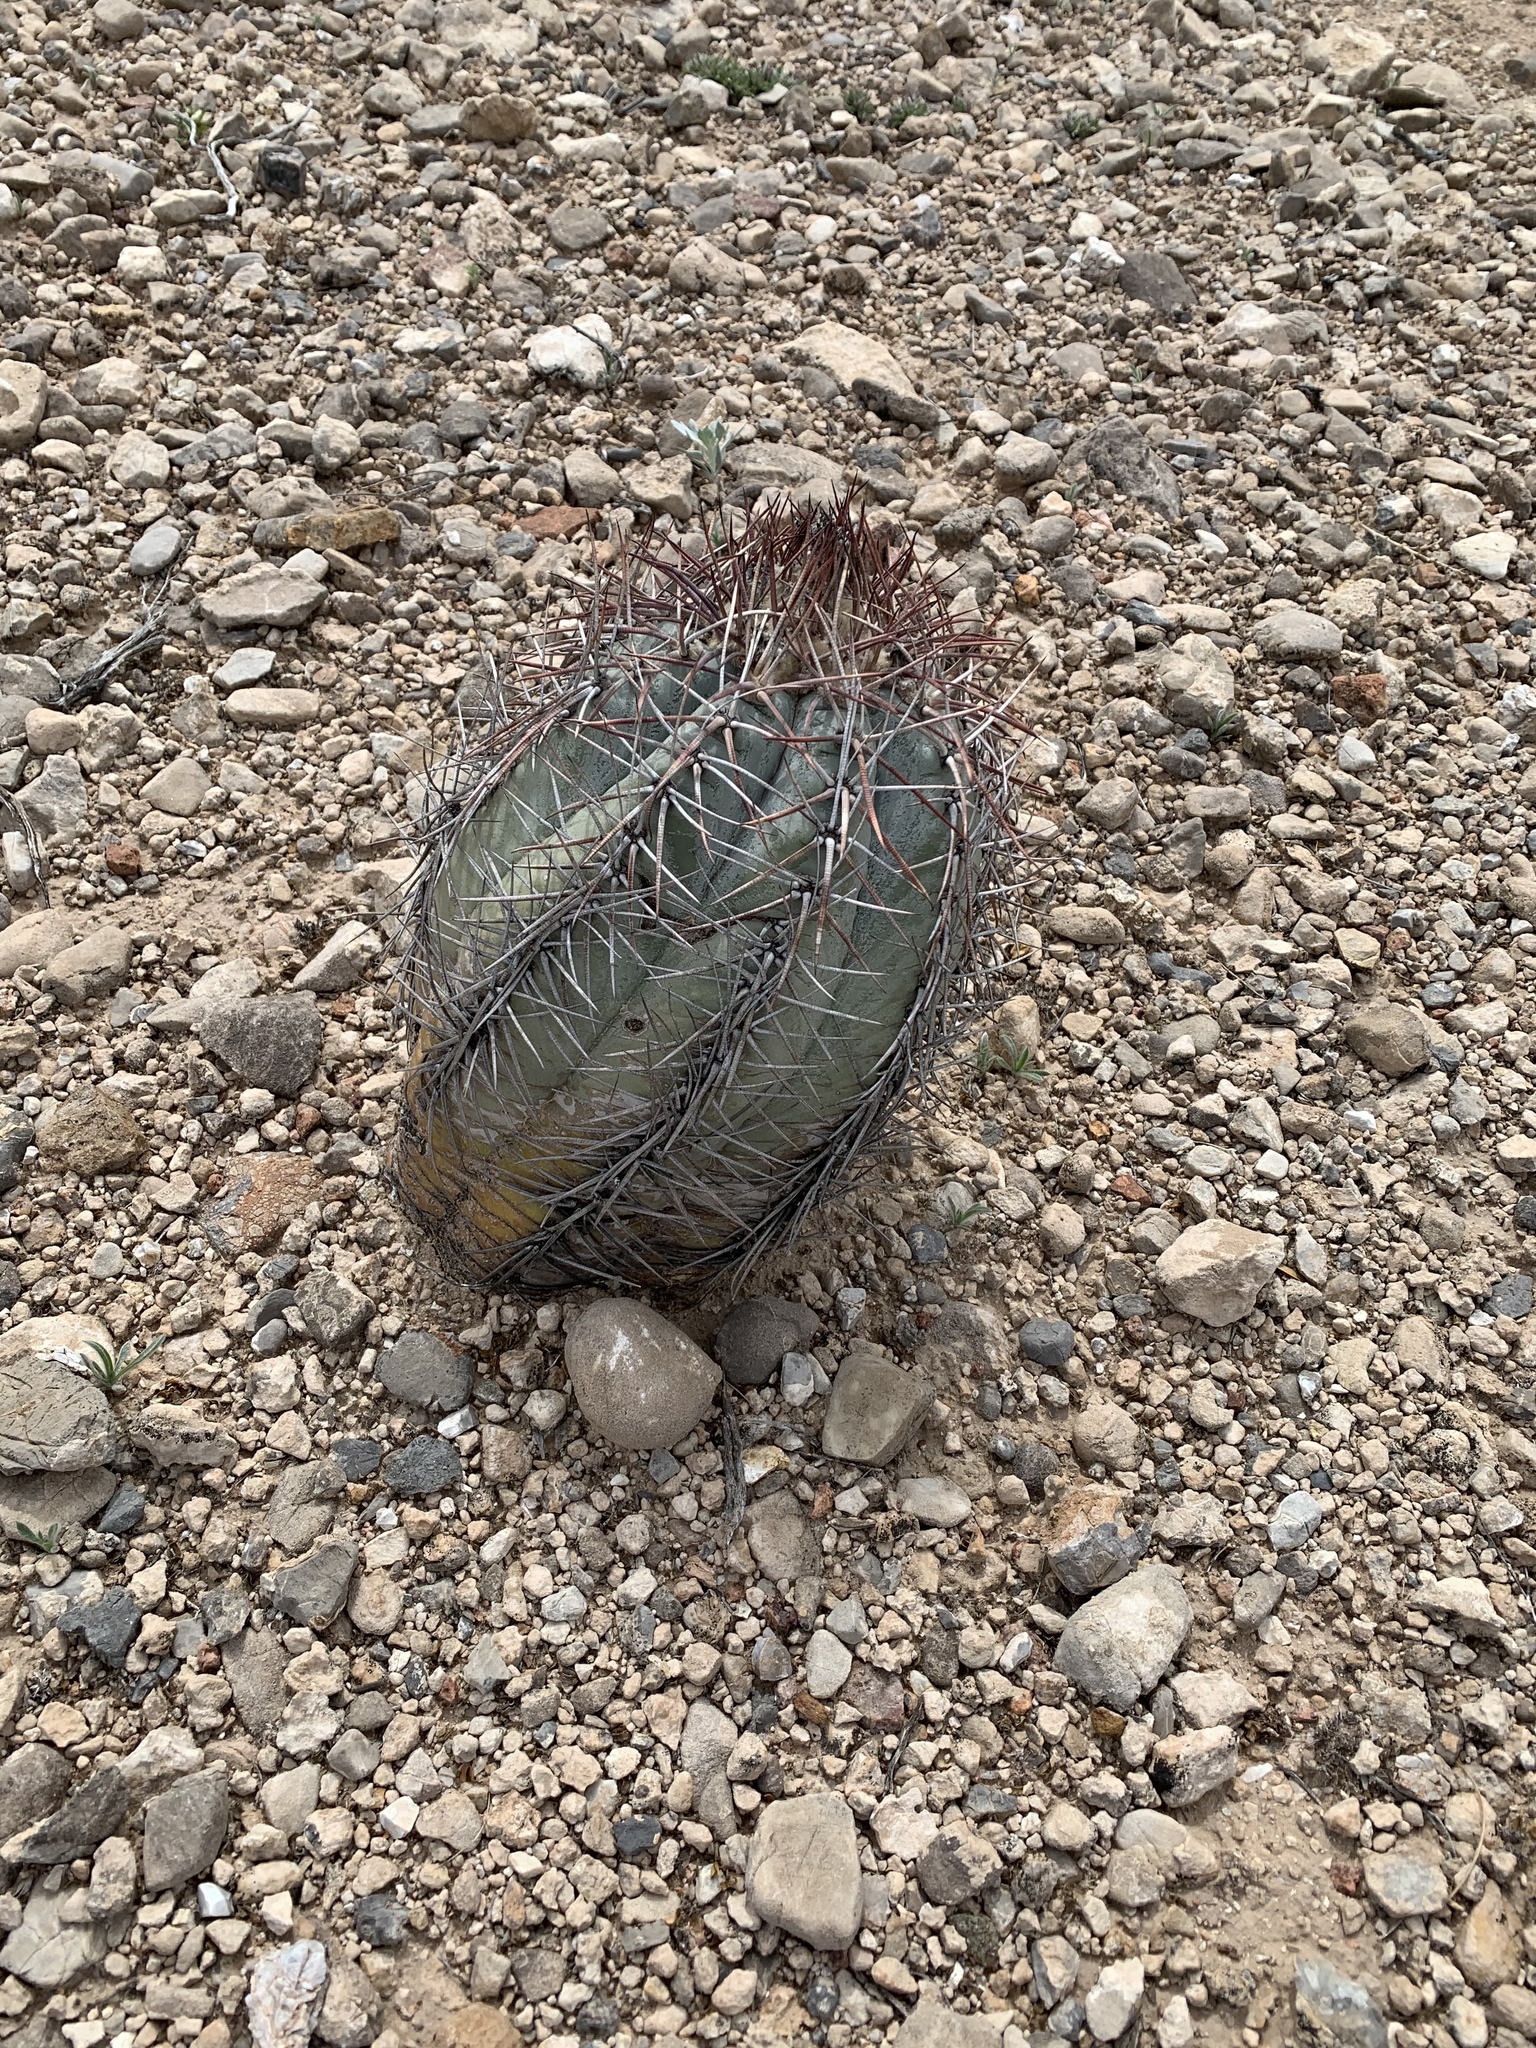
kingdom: Plantae
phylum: Tracheophyta
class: Magnoliopsida
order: Caryophyllales
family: Cactaceae
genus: Echinocactus
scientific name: Echinocactus horizonthalonius
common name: Devilshead
